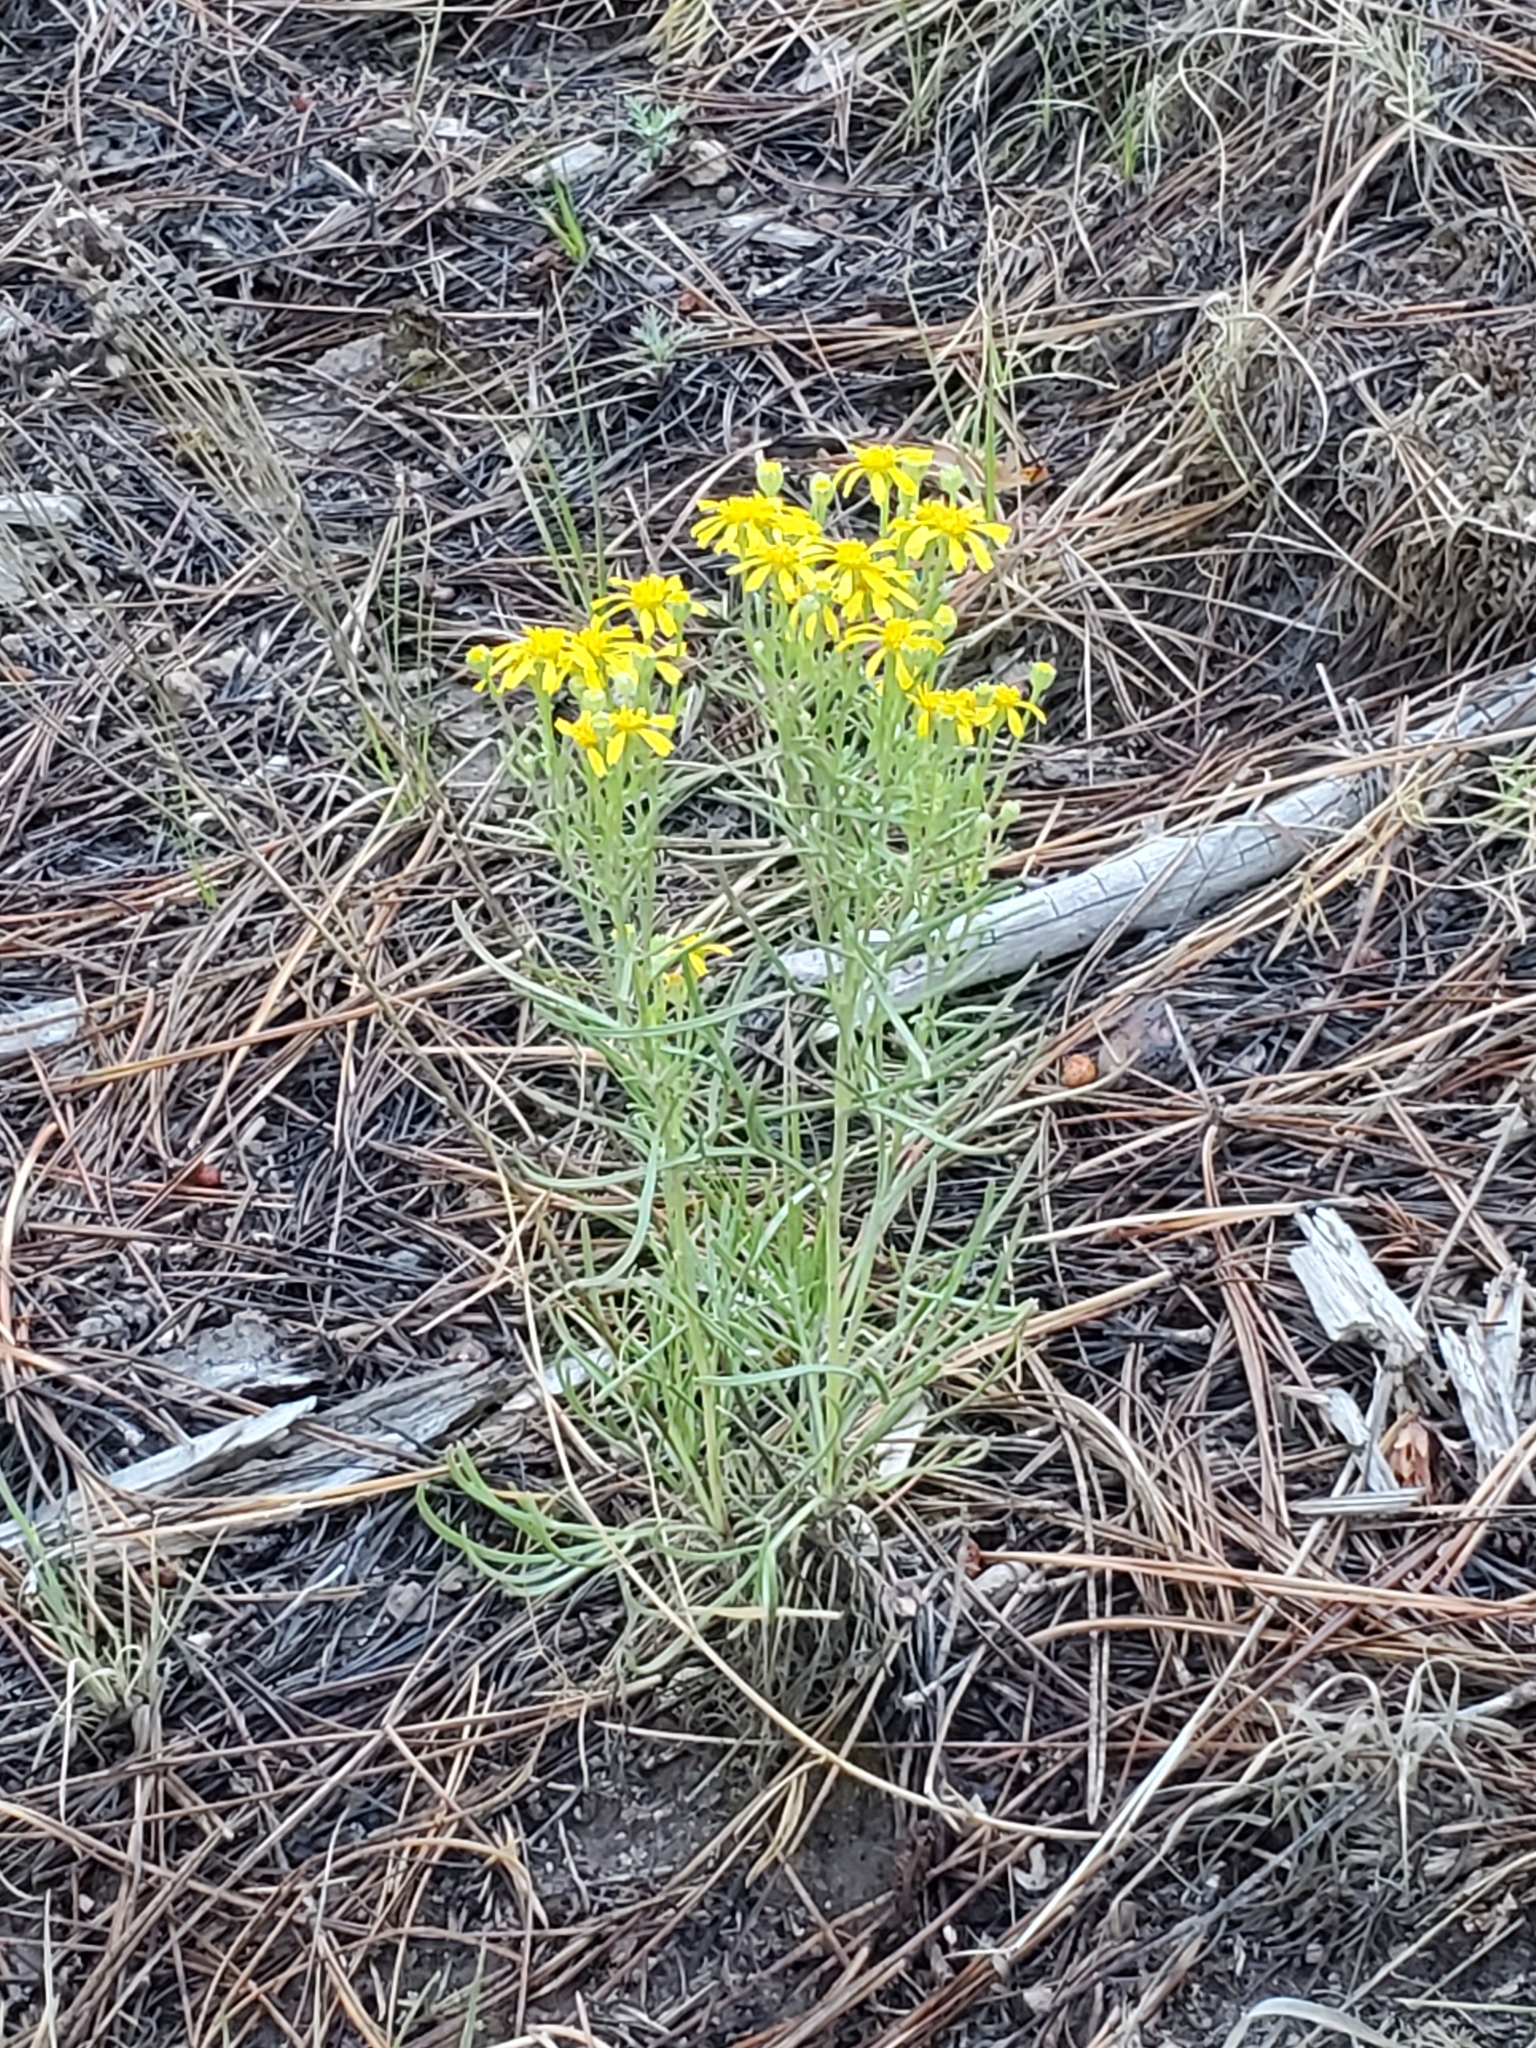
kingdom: Plantae
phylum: Tracheophyta
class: Magnoliopsida
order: Asterales
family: Asteraceae
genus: Hymenoxys
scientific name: Hymenoxys richardsonii
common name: Pingue rubberweed
